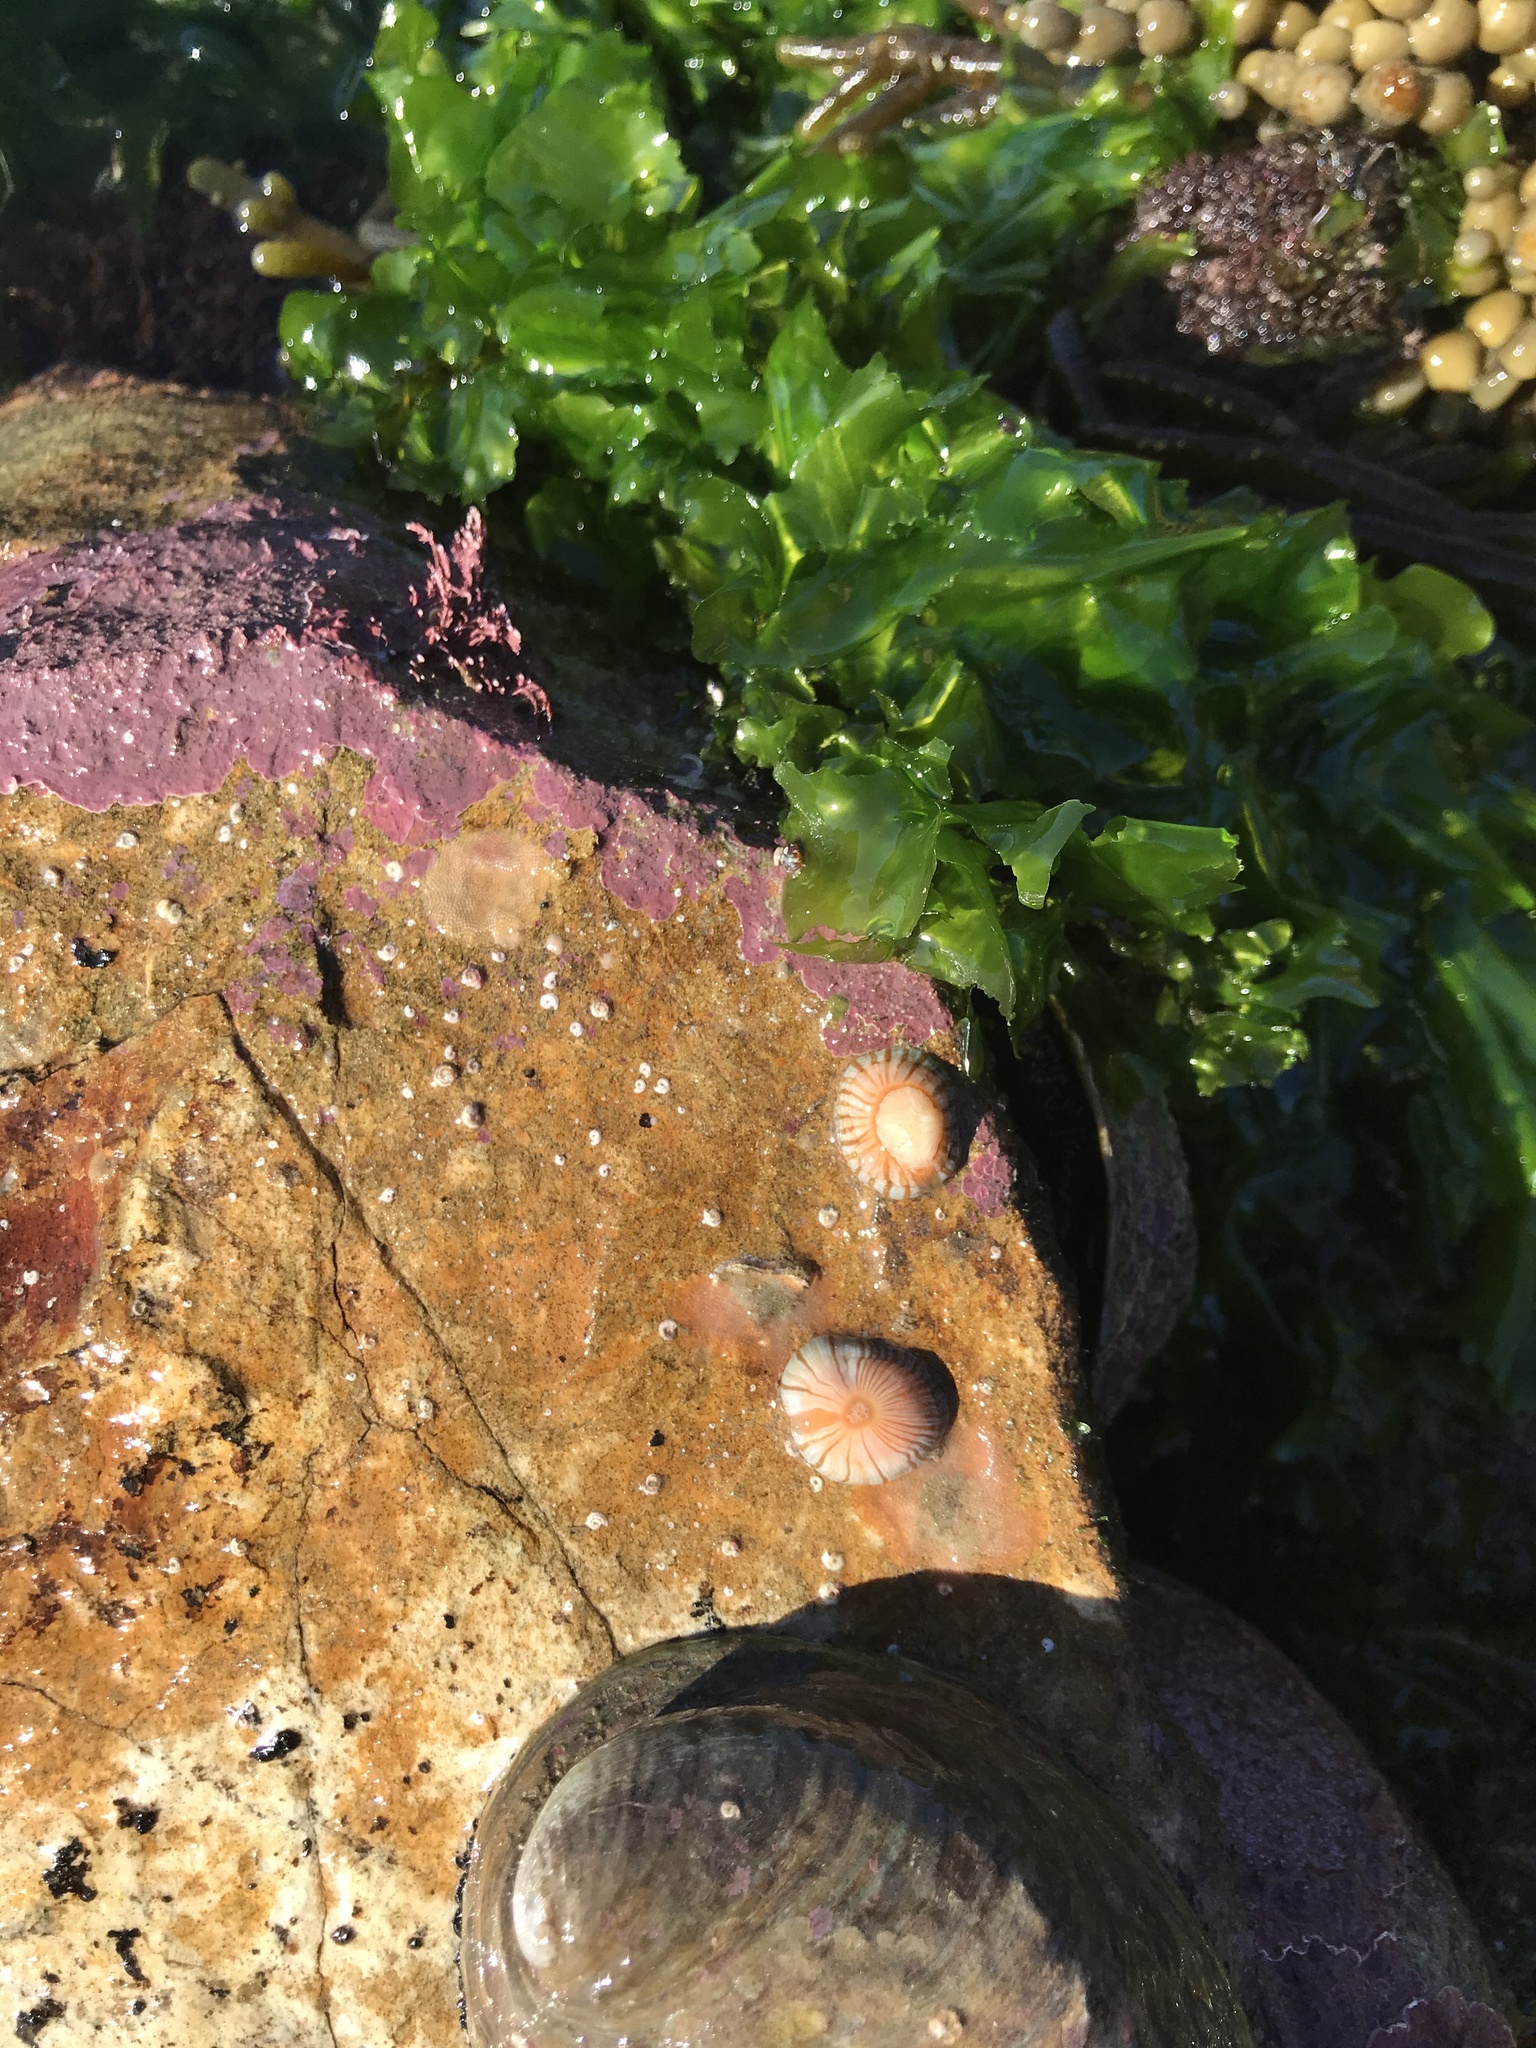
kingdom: Animalia
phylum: Cnidaria
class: Anthozoa
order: Actiniaria
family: Sagartiidae
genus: Anthothoe
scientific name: Anthothoe albocincta
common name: Orange striped anemone
